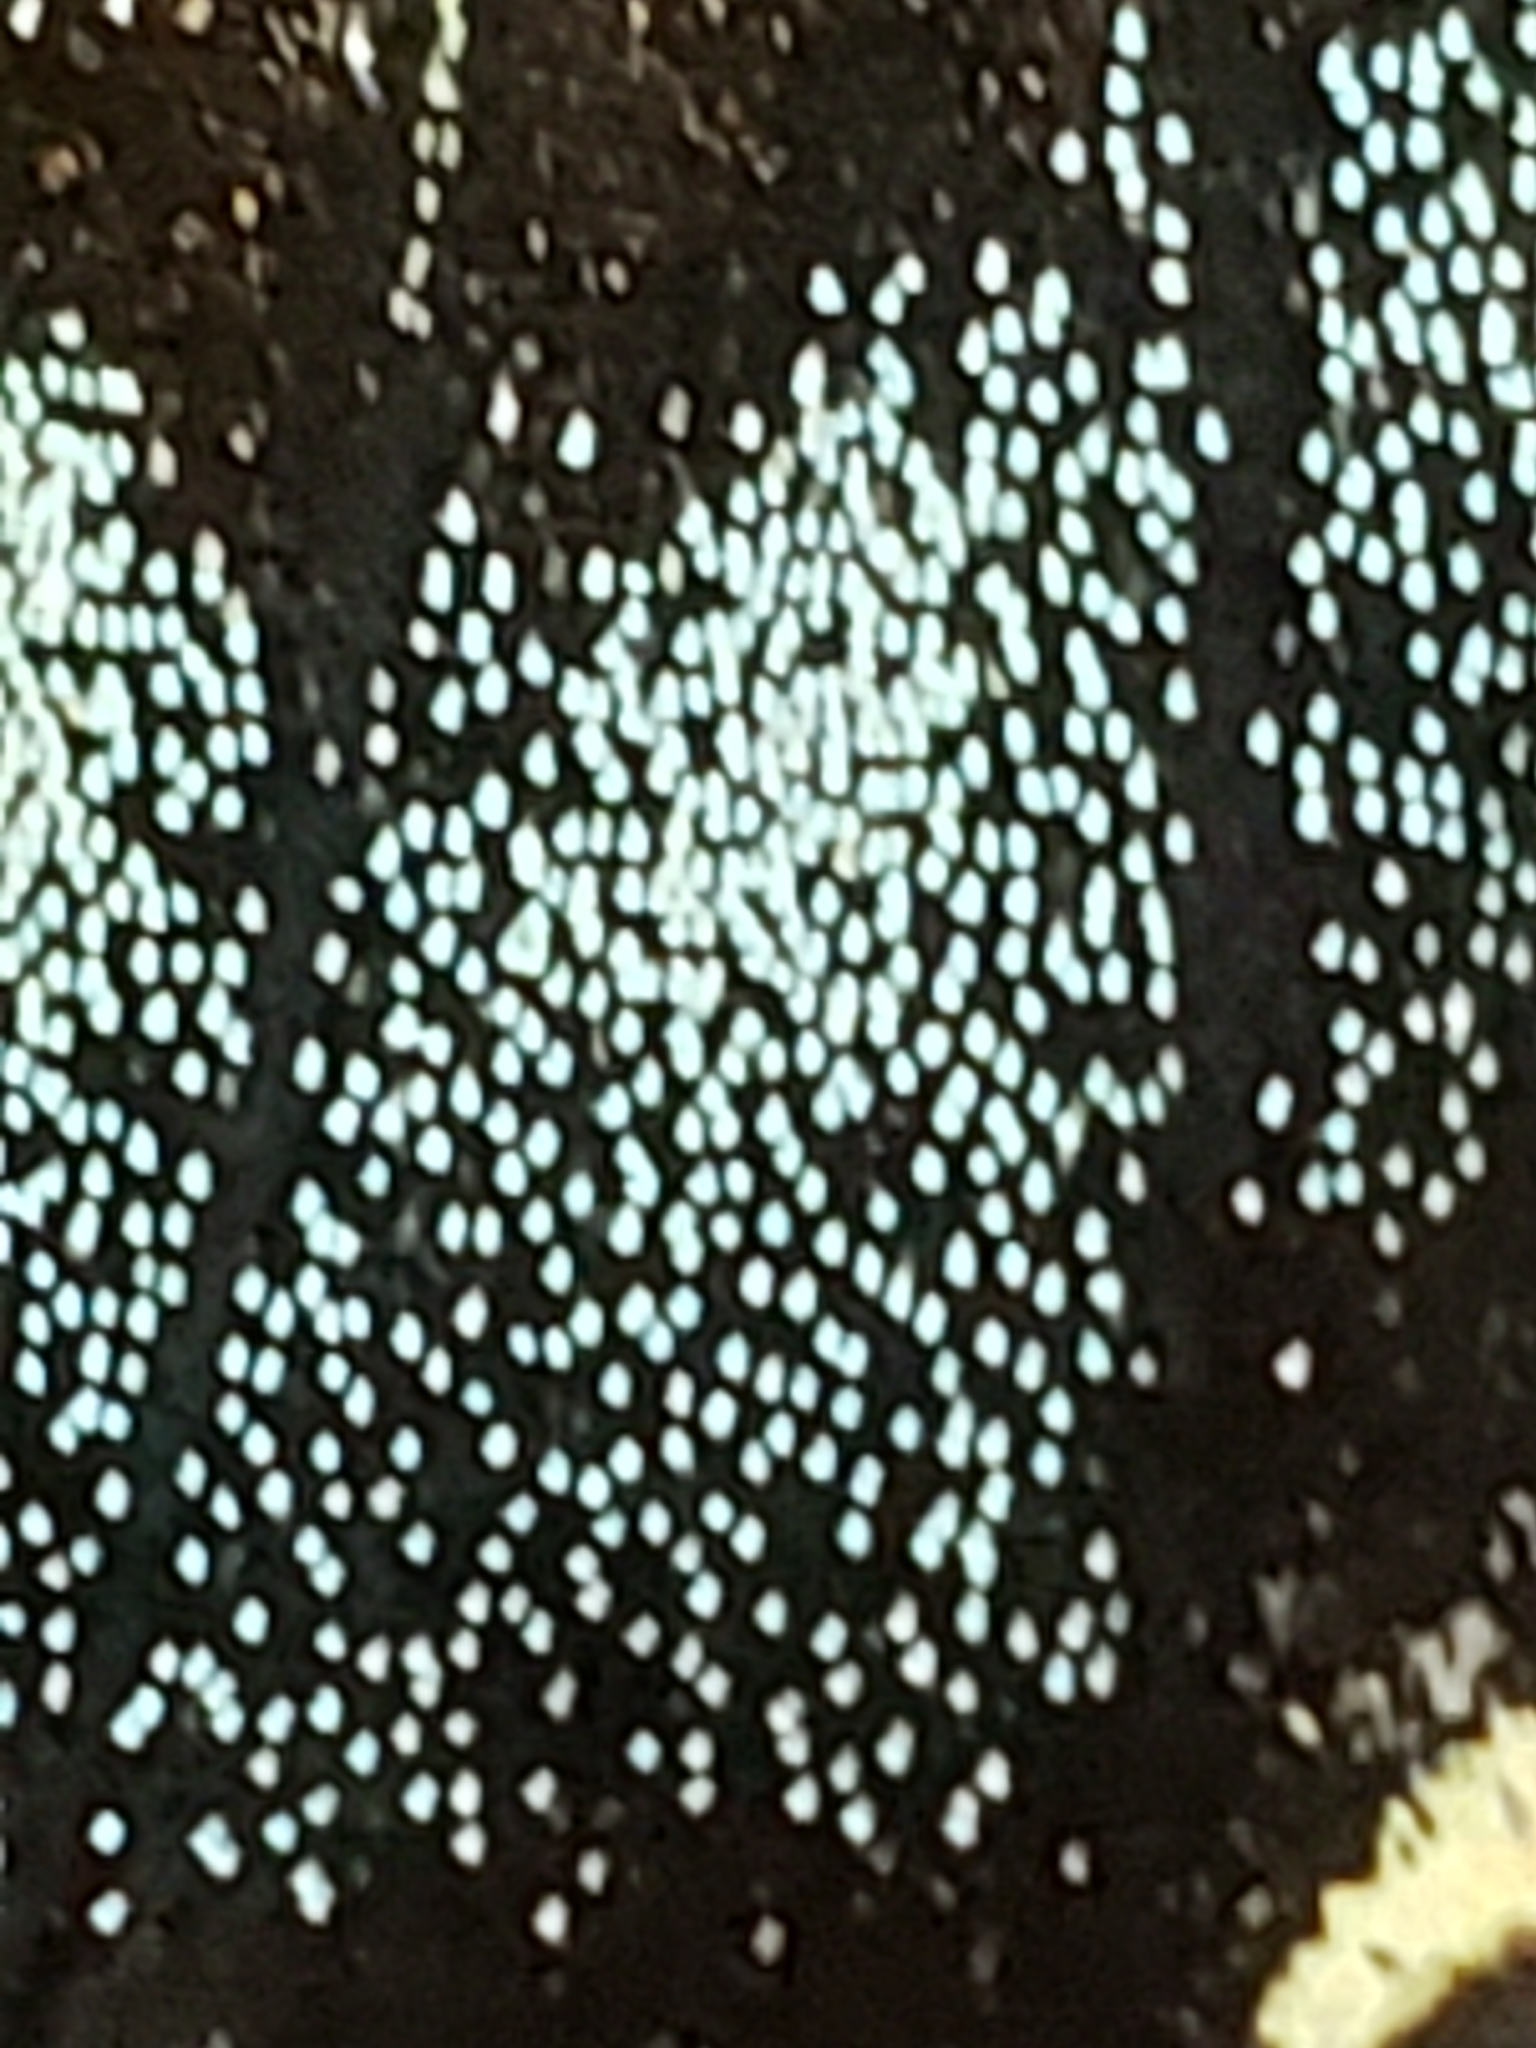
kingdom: Animalia
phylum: Arthropoda
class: Insecta
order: Lepidoptera
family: Papilionidae
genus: Papilio
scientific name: Papilio glaucus
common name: Tiger swallowtail
